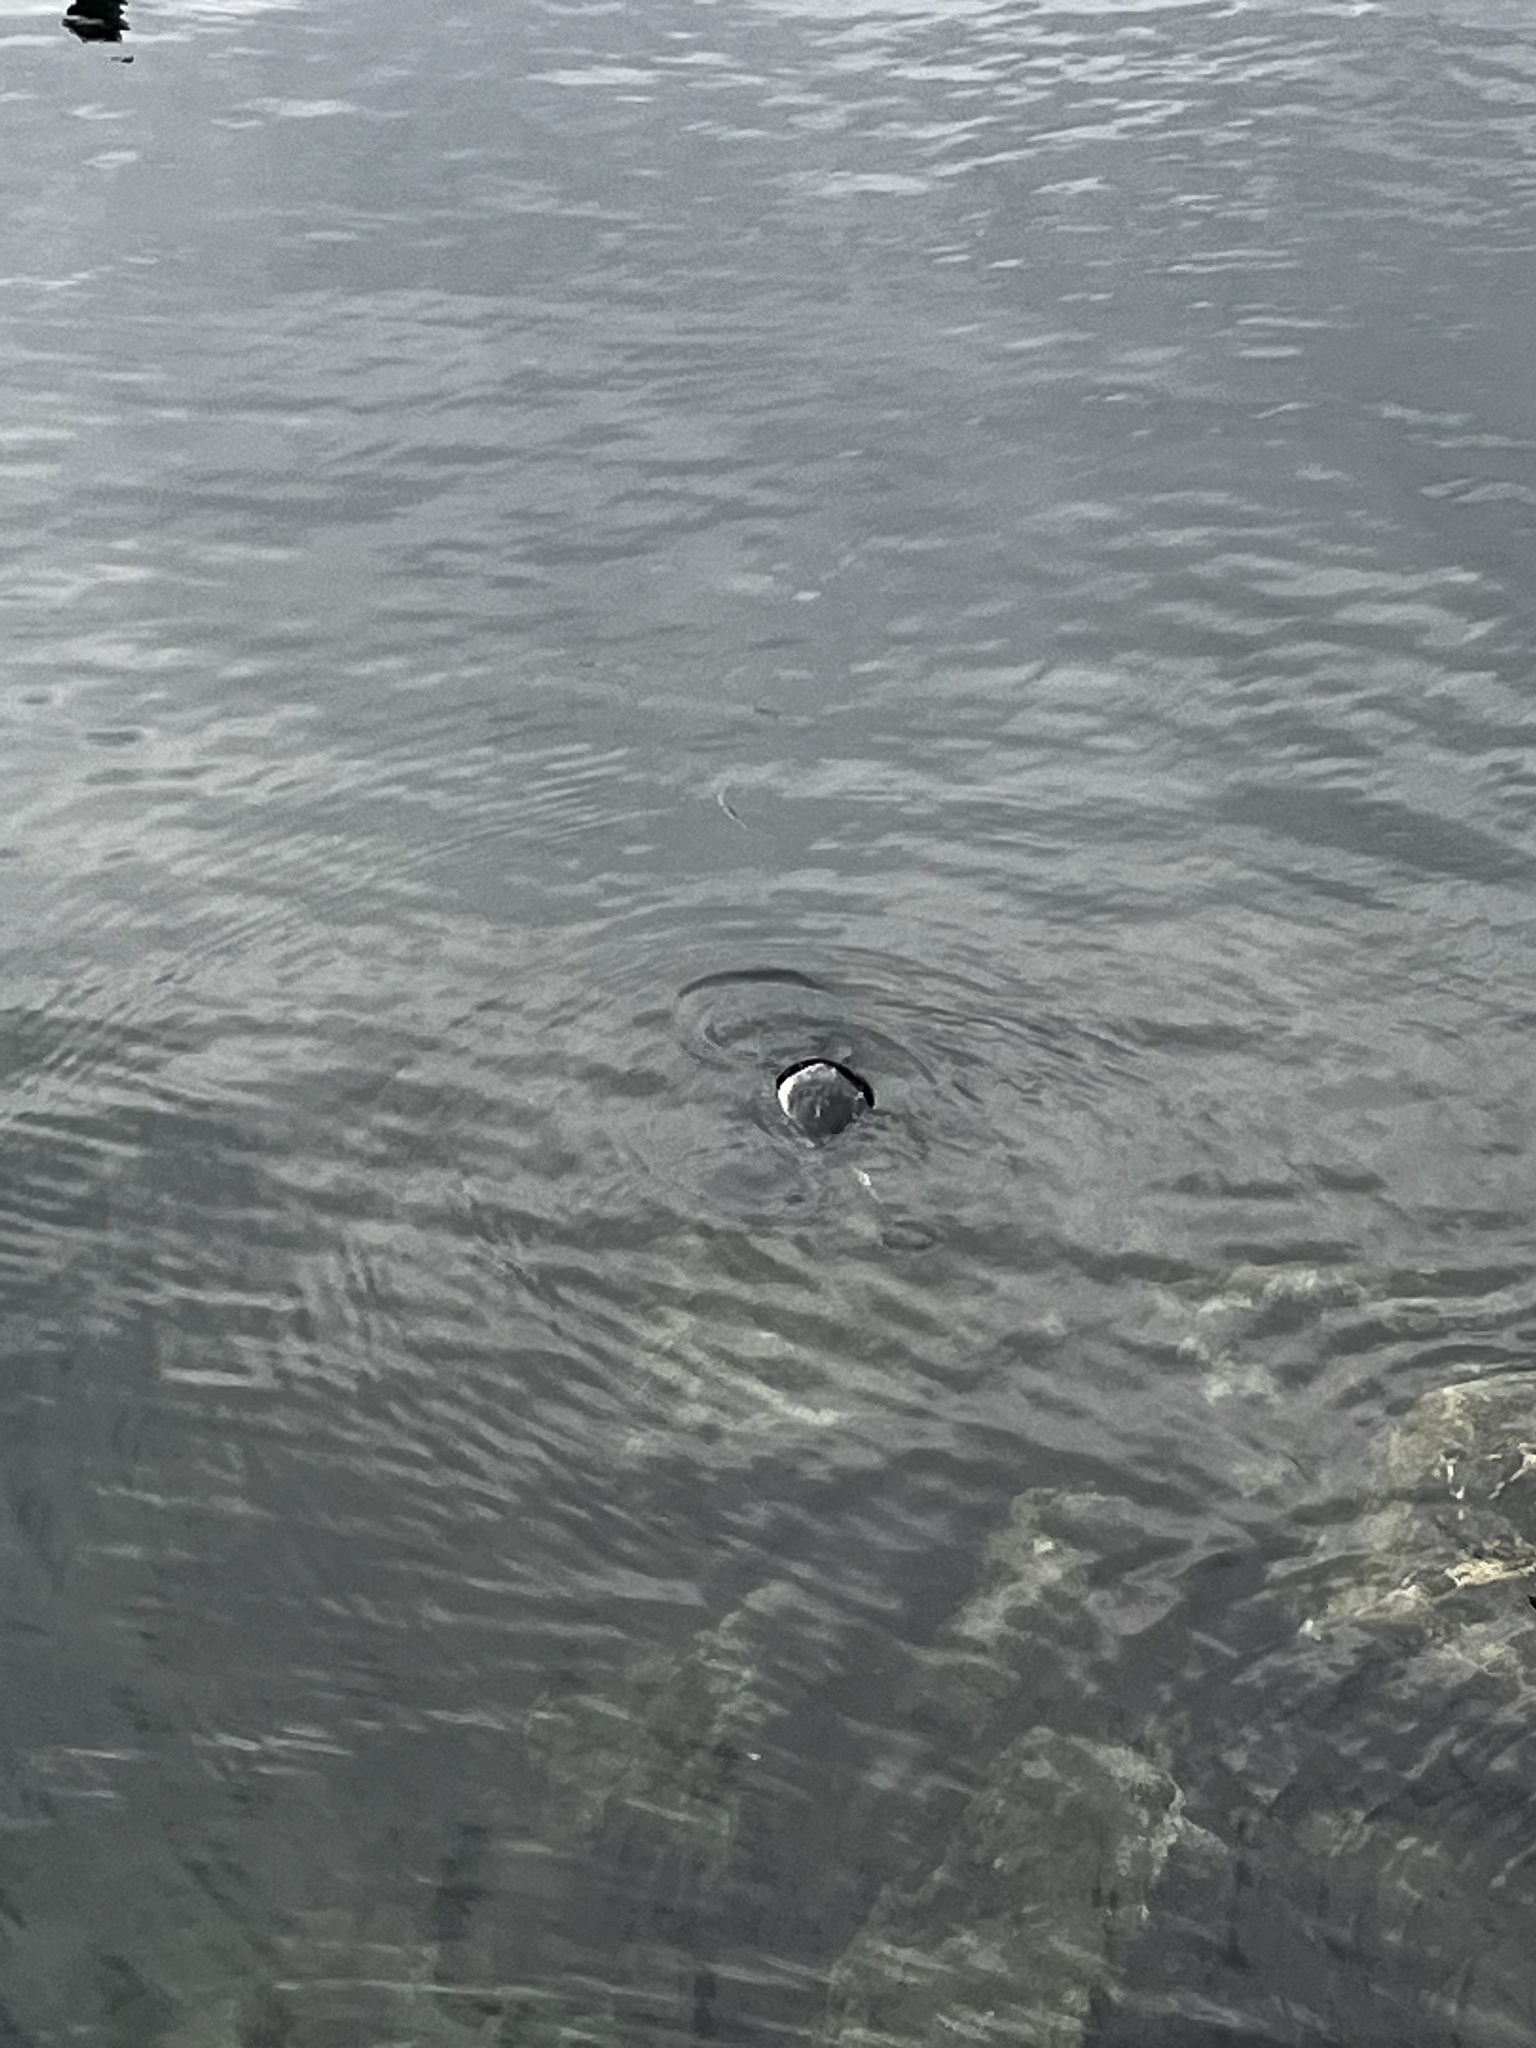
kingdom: Animalia
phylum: Chordata
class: Mammalia
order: Carnivora
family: Phocidae
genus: Phoca
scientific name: Phoca vitulina
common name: Harbor seal
